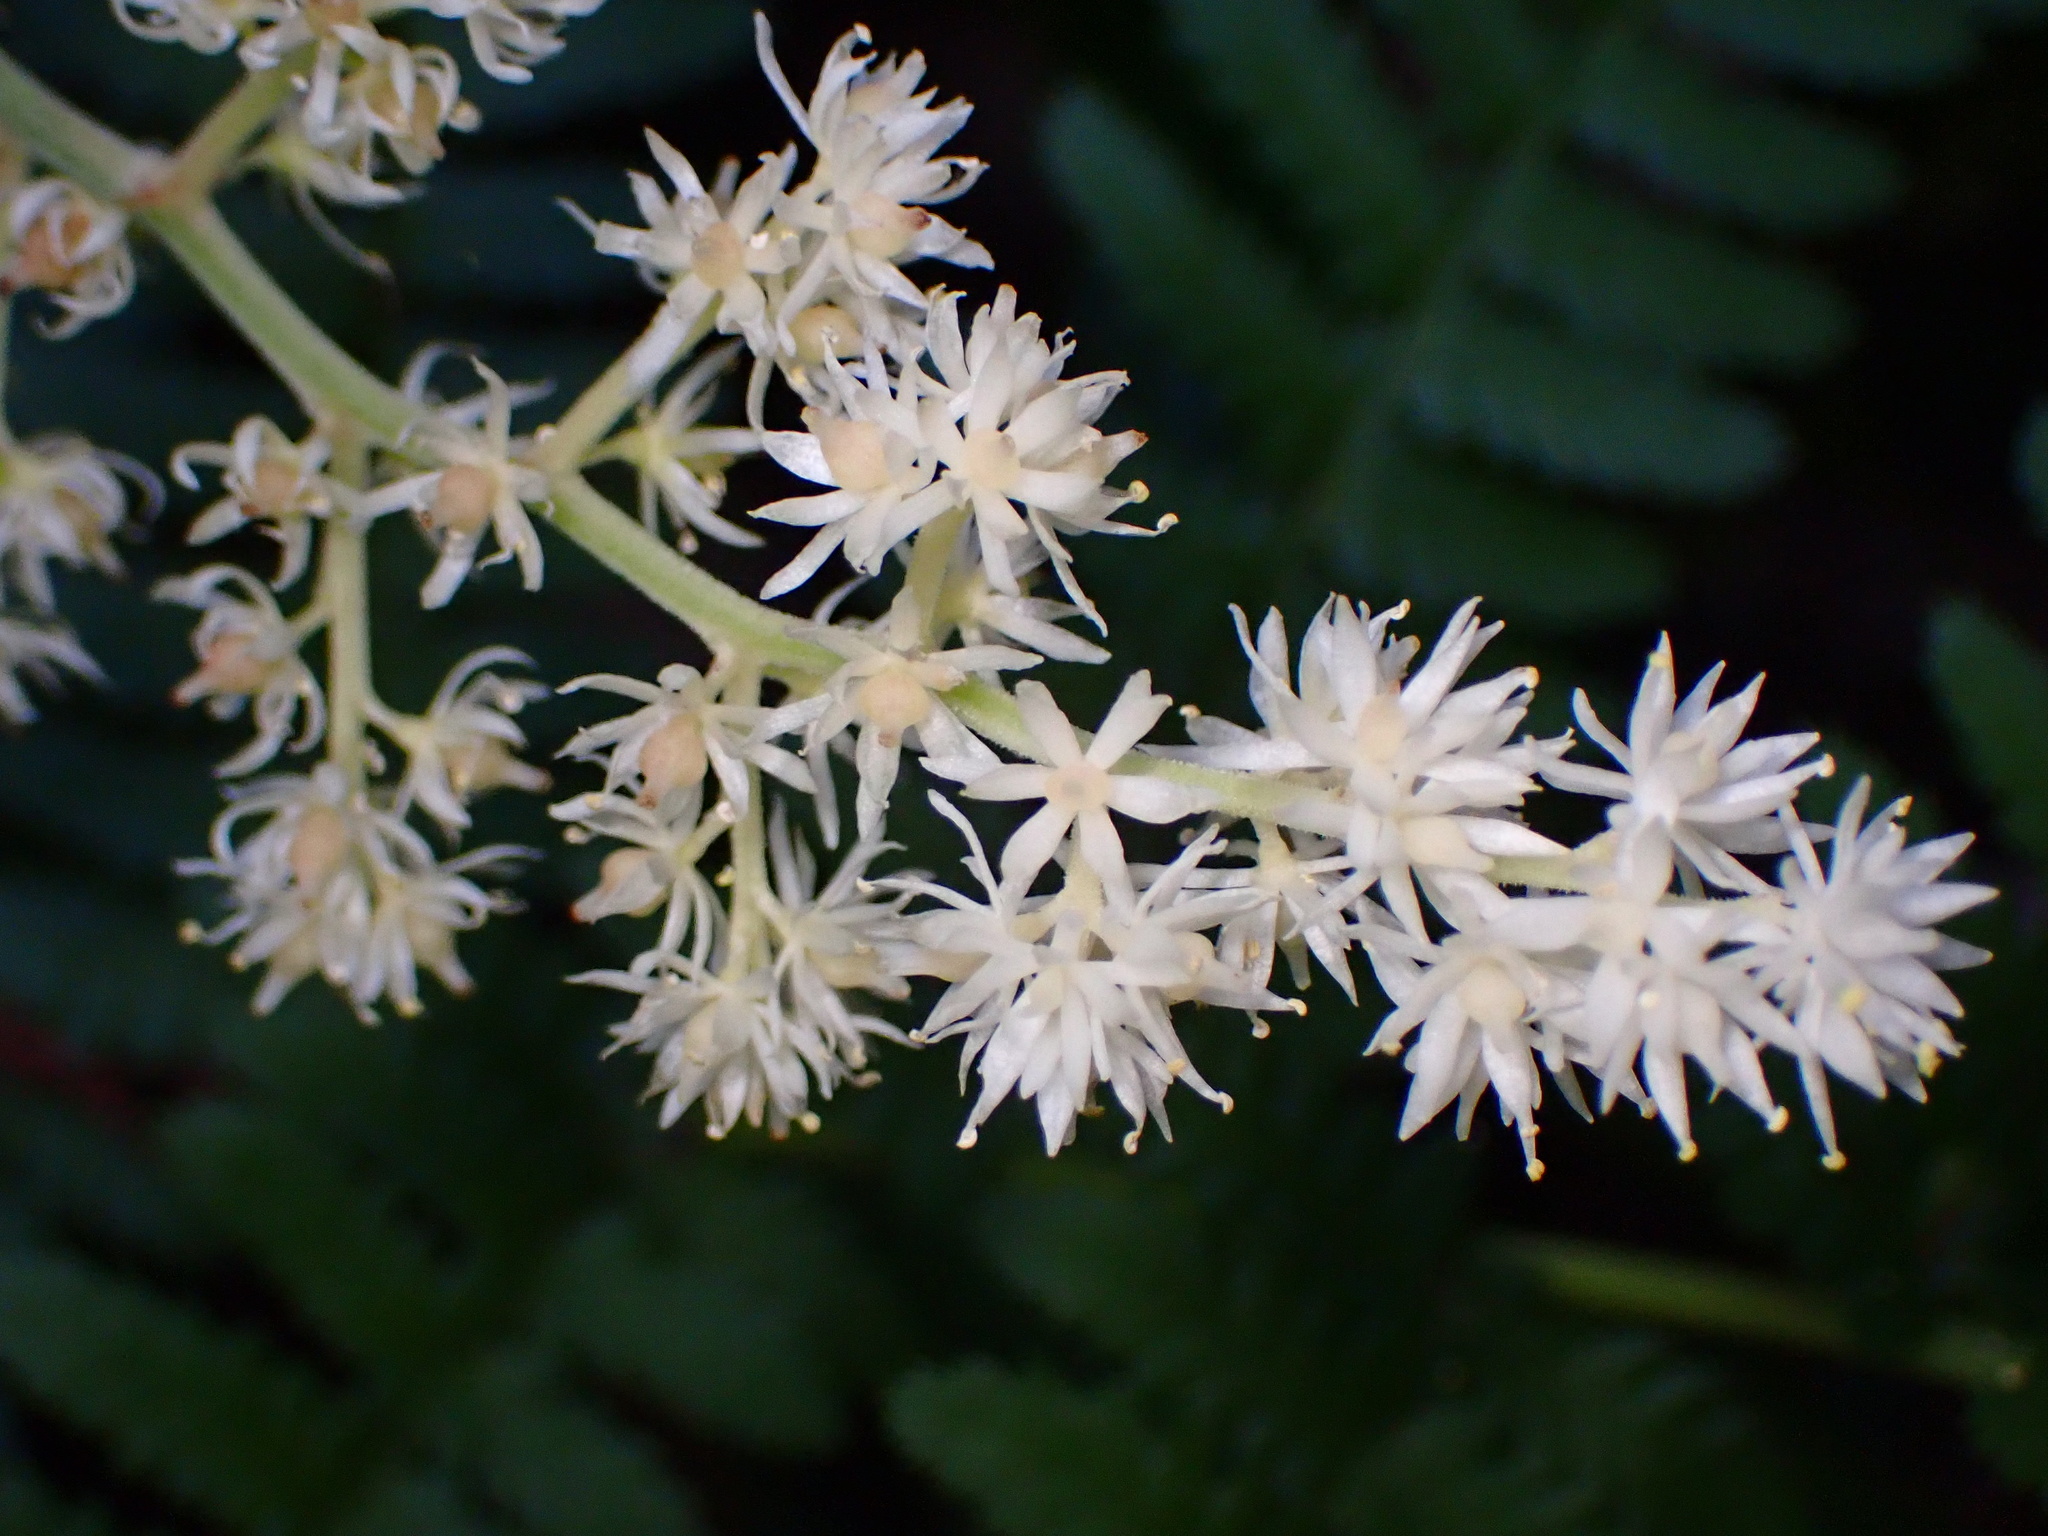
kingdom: Plantae
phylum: Tracheophyta
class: Liliopsida
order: Asparagales
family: Asparagaceae
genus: Maianthemum
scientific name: Maianthemum racemosum
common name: False spikenard
